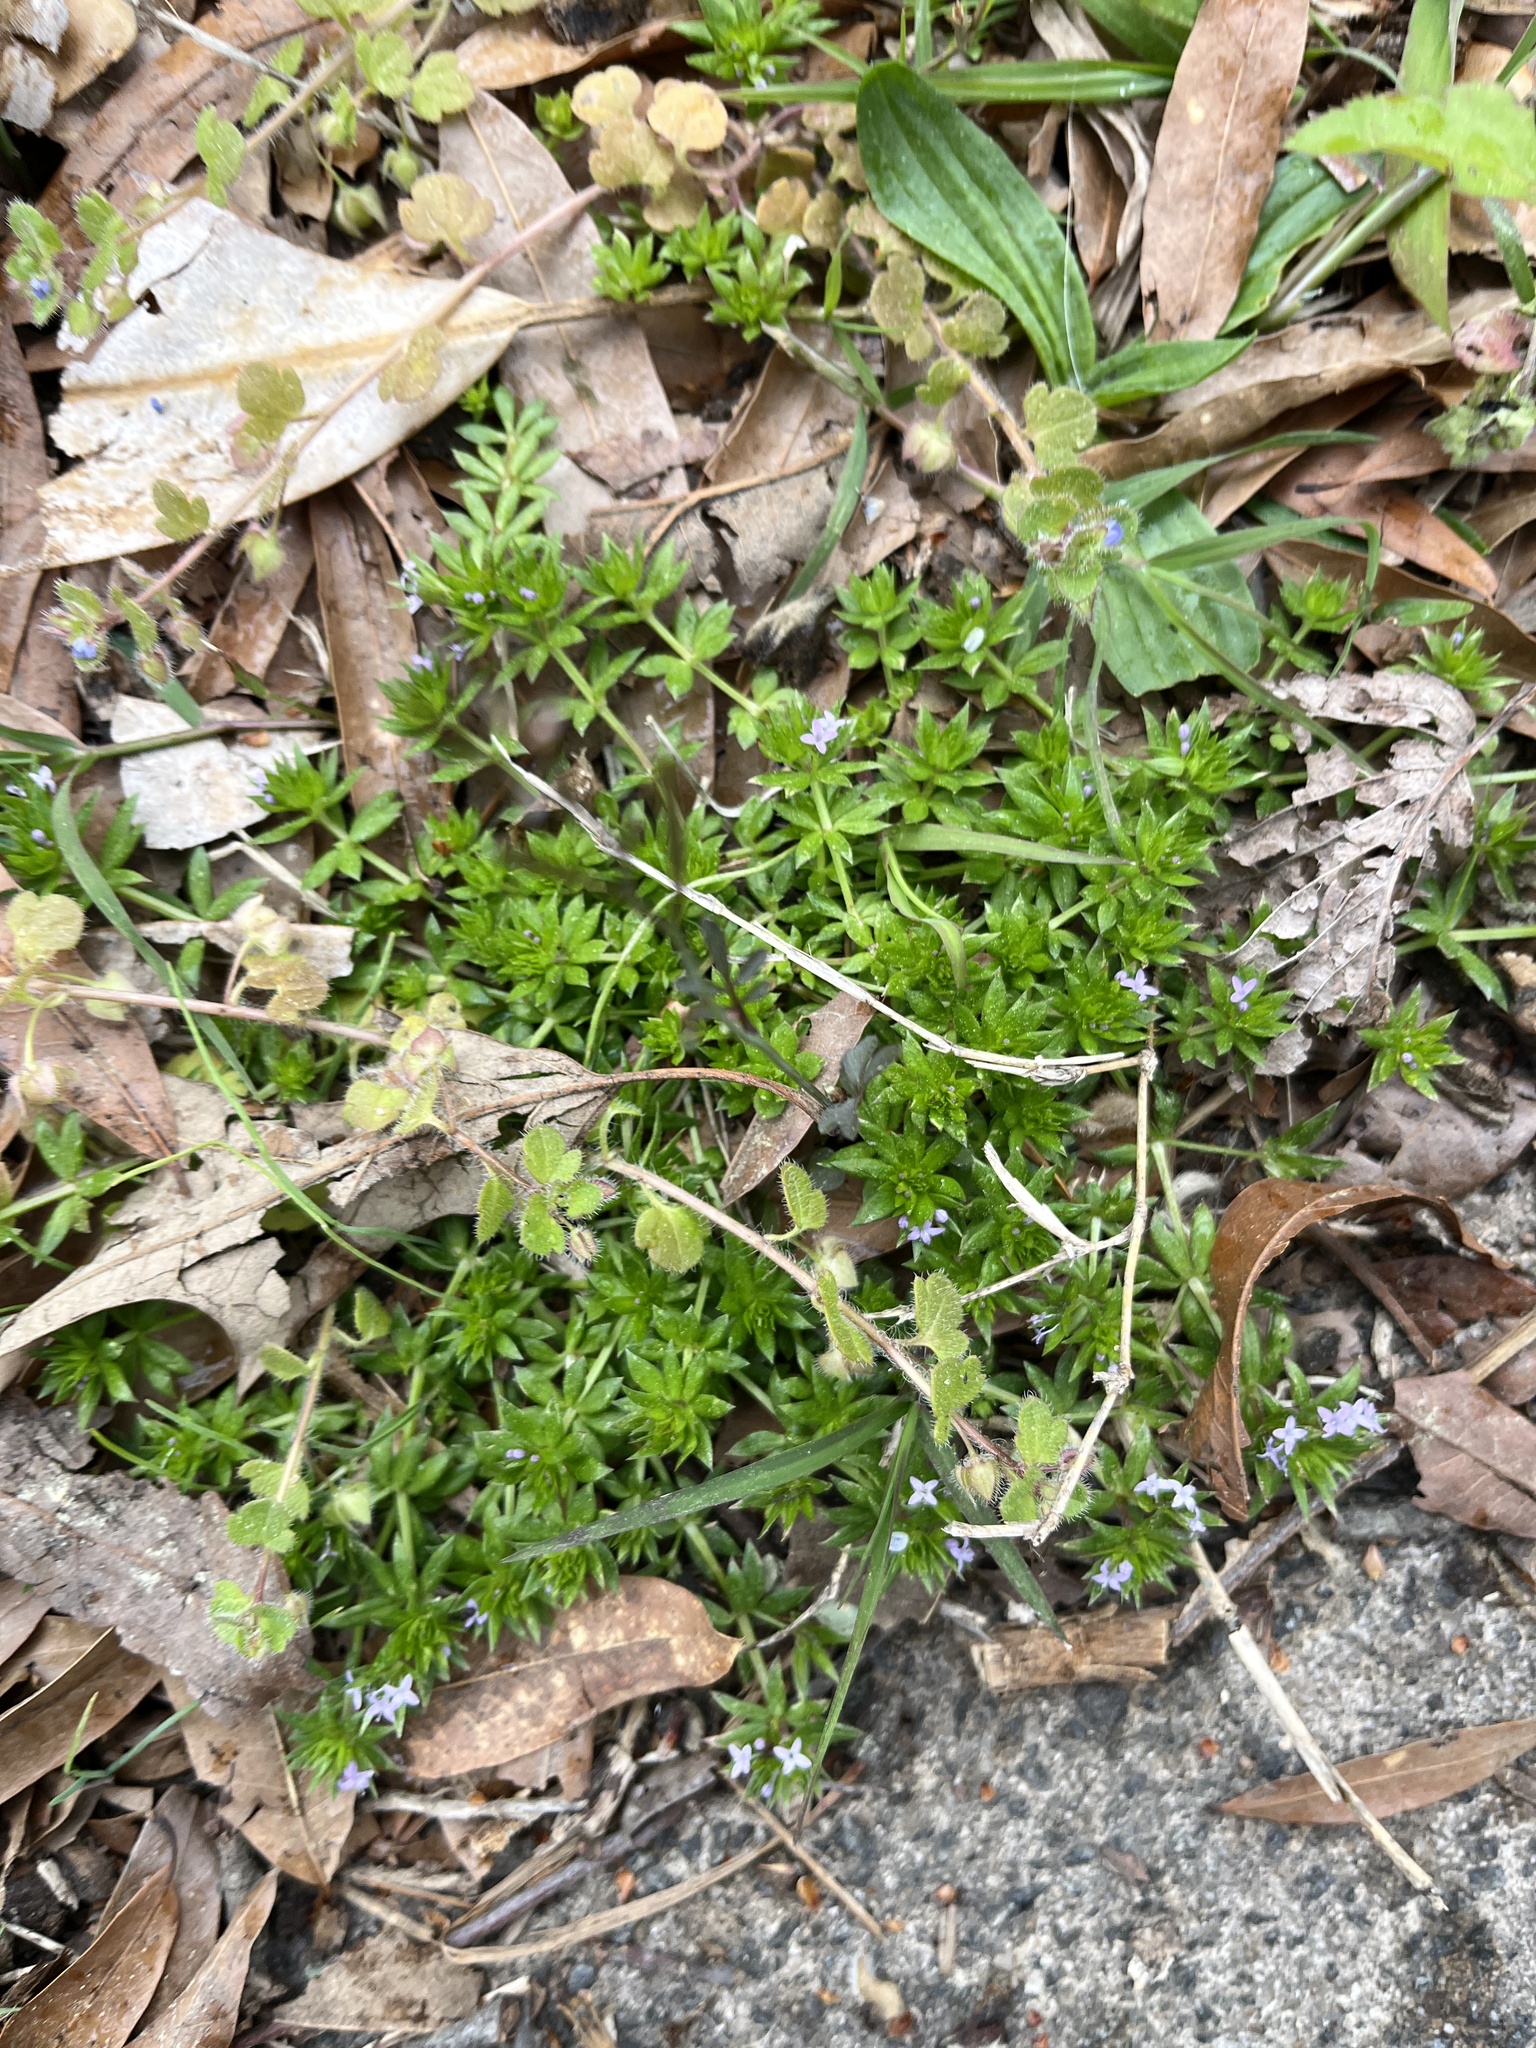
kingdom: Plantae
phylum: Tracheophyta
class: Magnoliopsida
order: Gentianales
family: Rubiaceae
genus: Sherardia
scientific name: Sherardia arvensis
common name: Field madder
